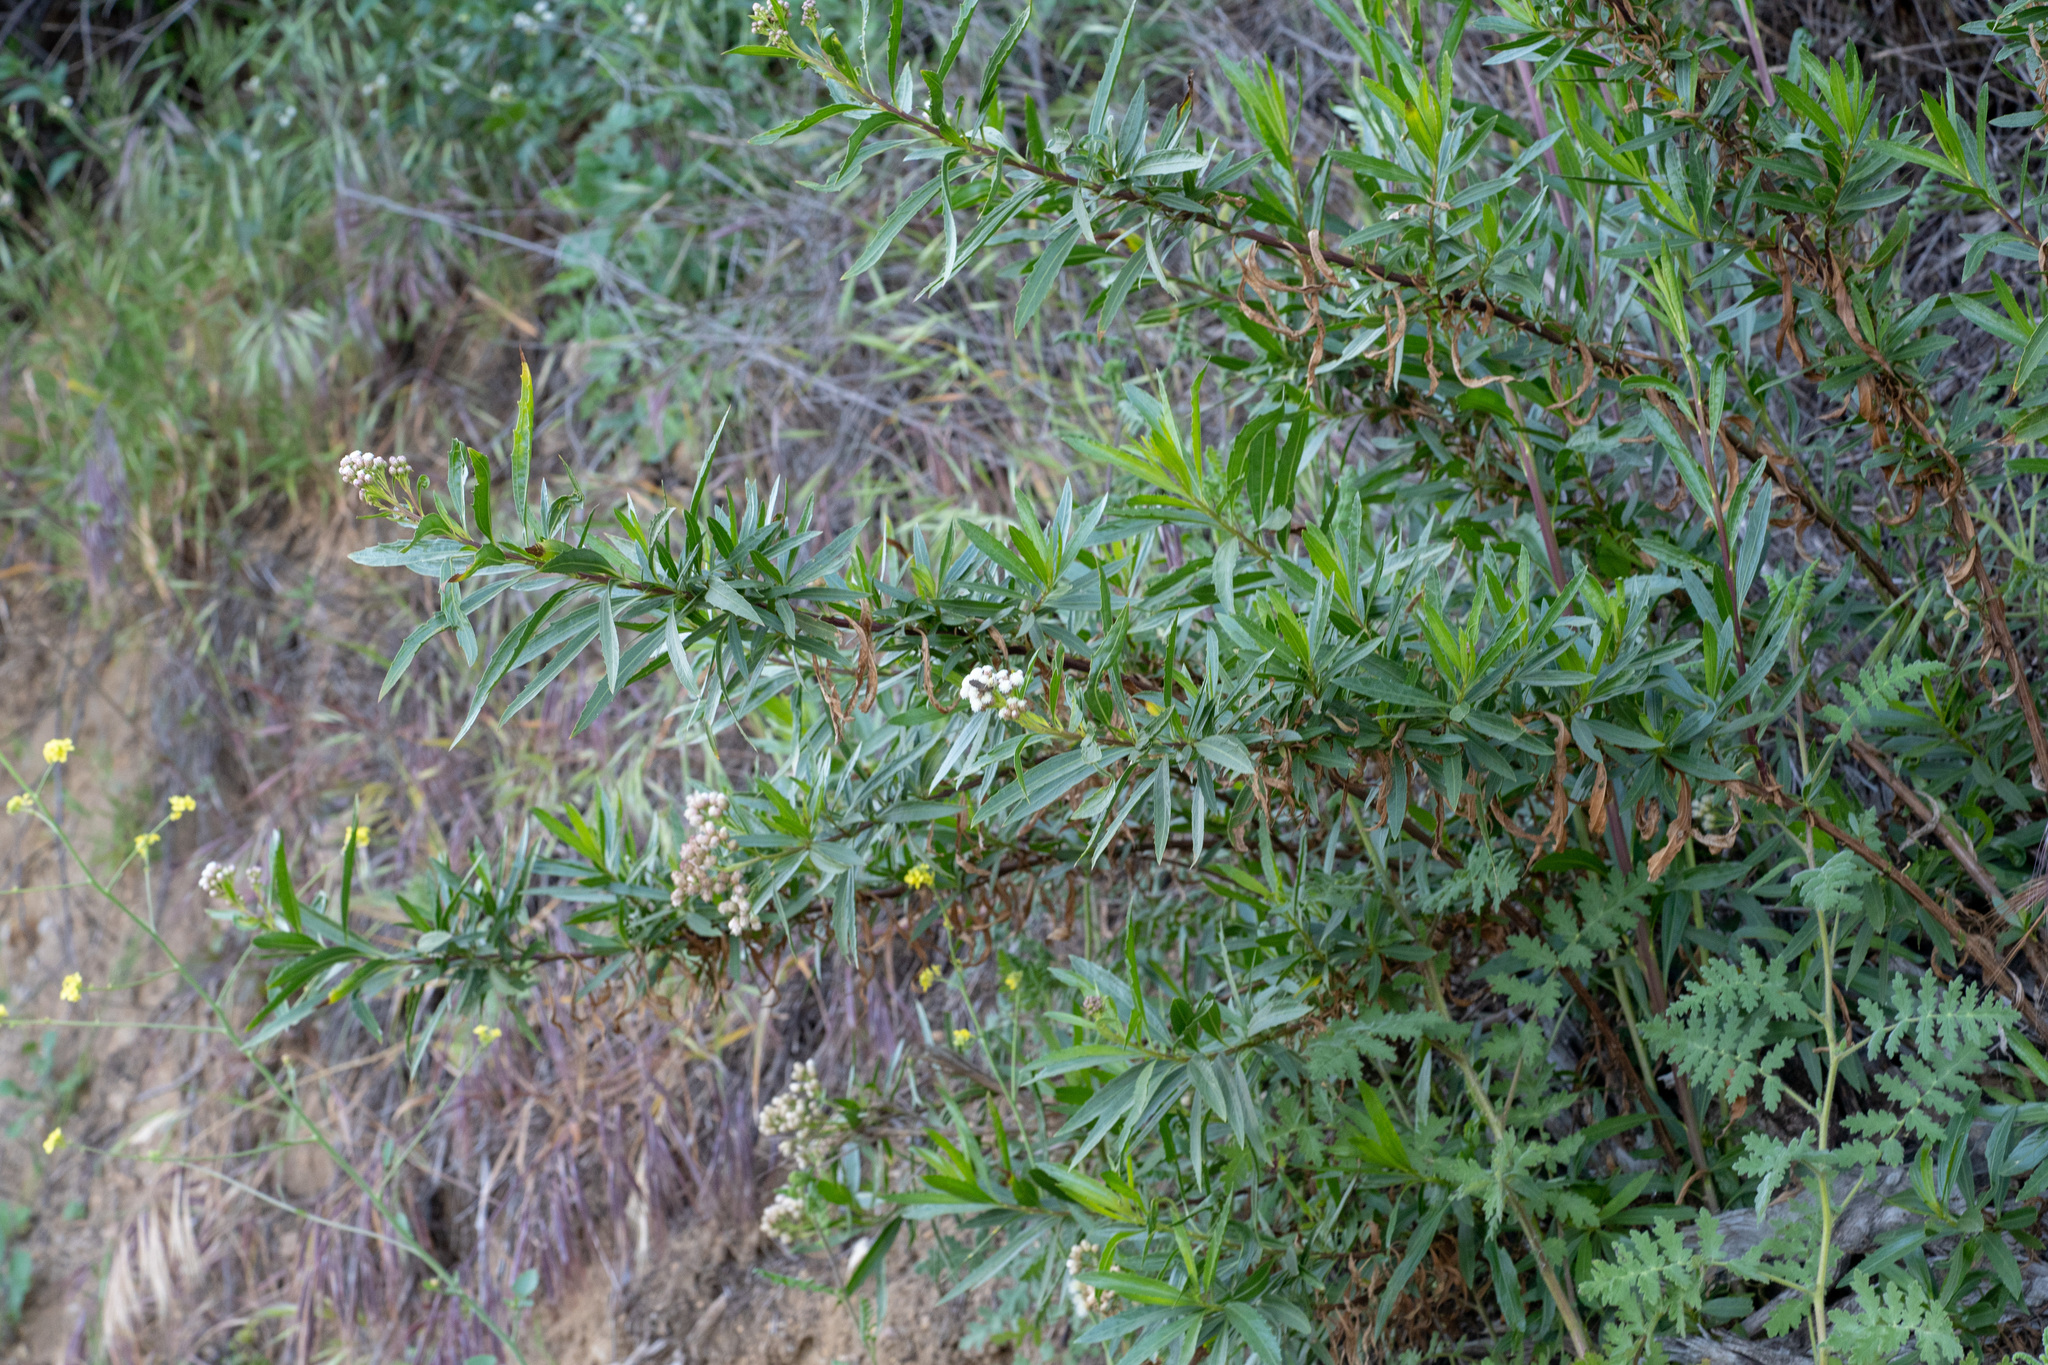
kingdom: Plantae
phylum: Tracheophyta
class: Magnoliopsida
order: Asterales
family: Asteraceae
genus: Baccharis
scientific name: Baccharis salicifolia
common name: Sticky baccharis
